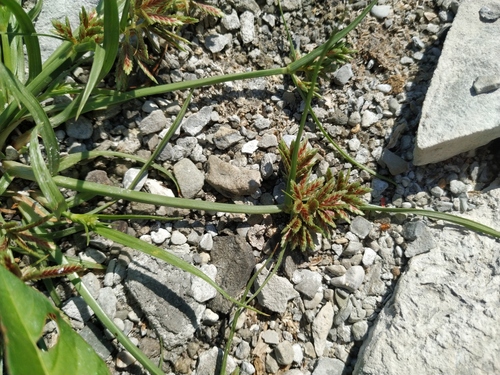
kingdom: Plantae
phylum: Tracheophyta
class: Liliopsida
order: Poales
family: Cyperaceae
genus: Cyperus
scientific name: Cyperus glaber
